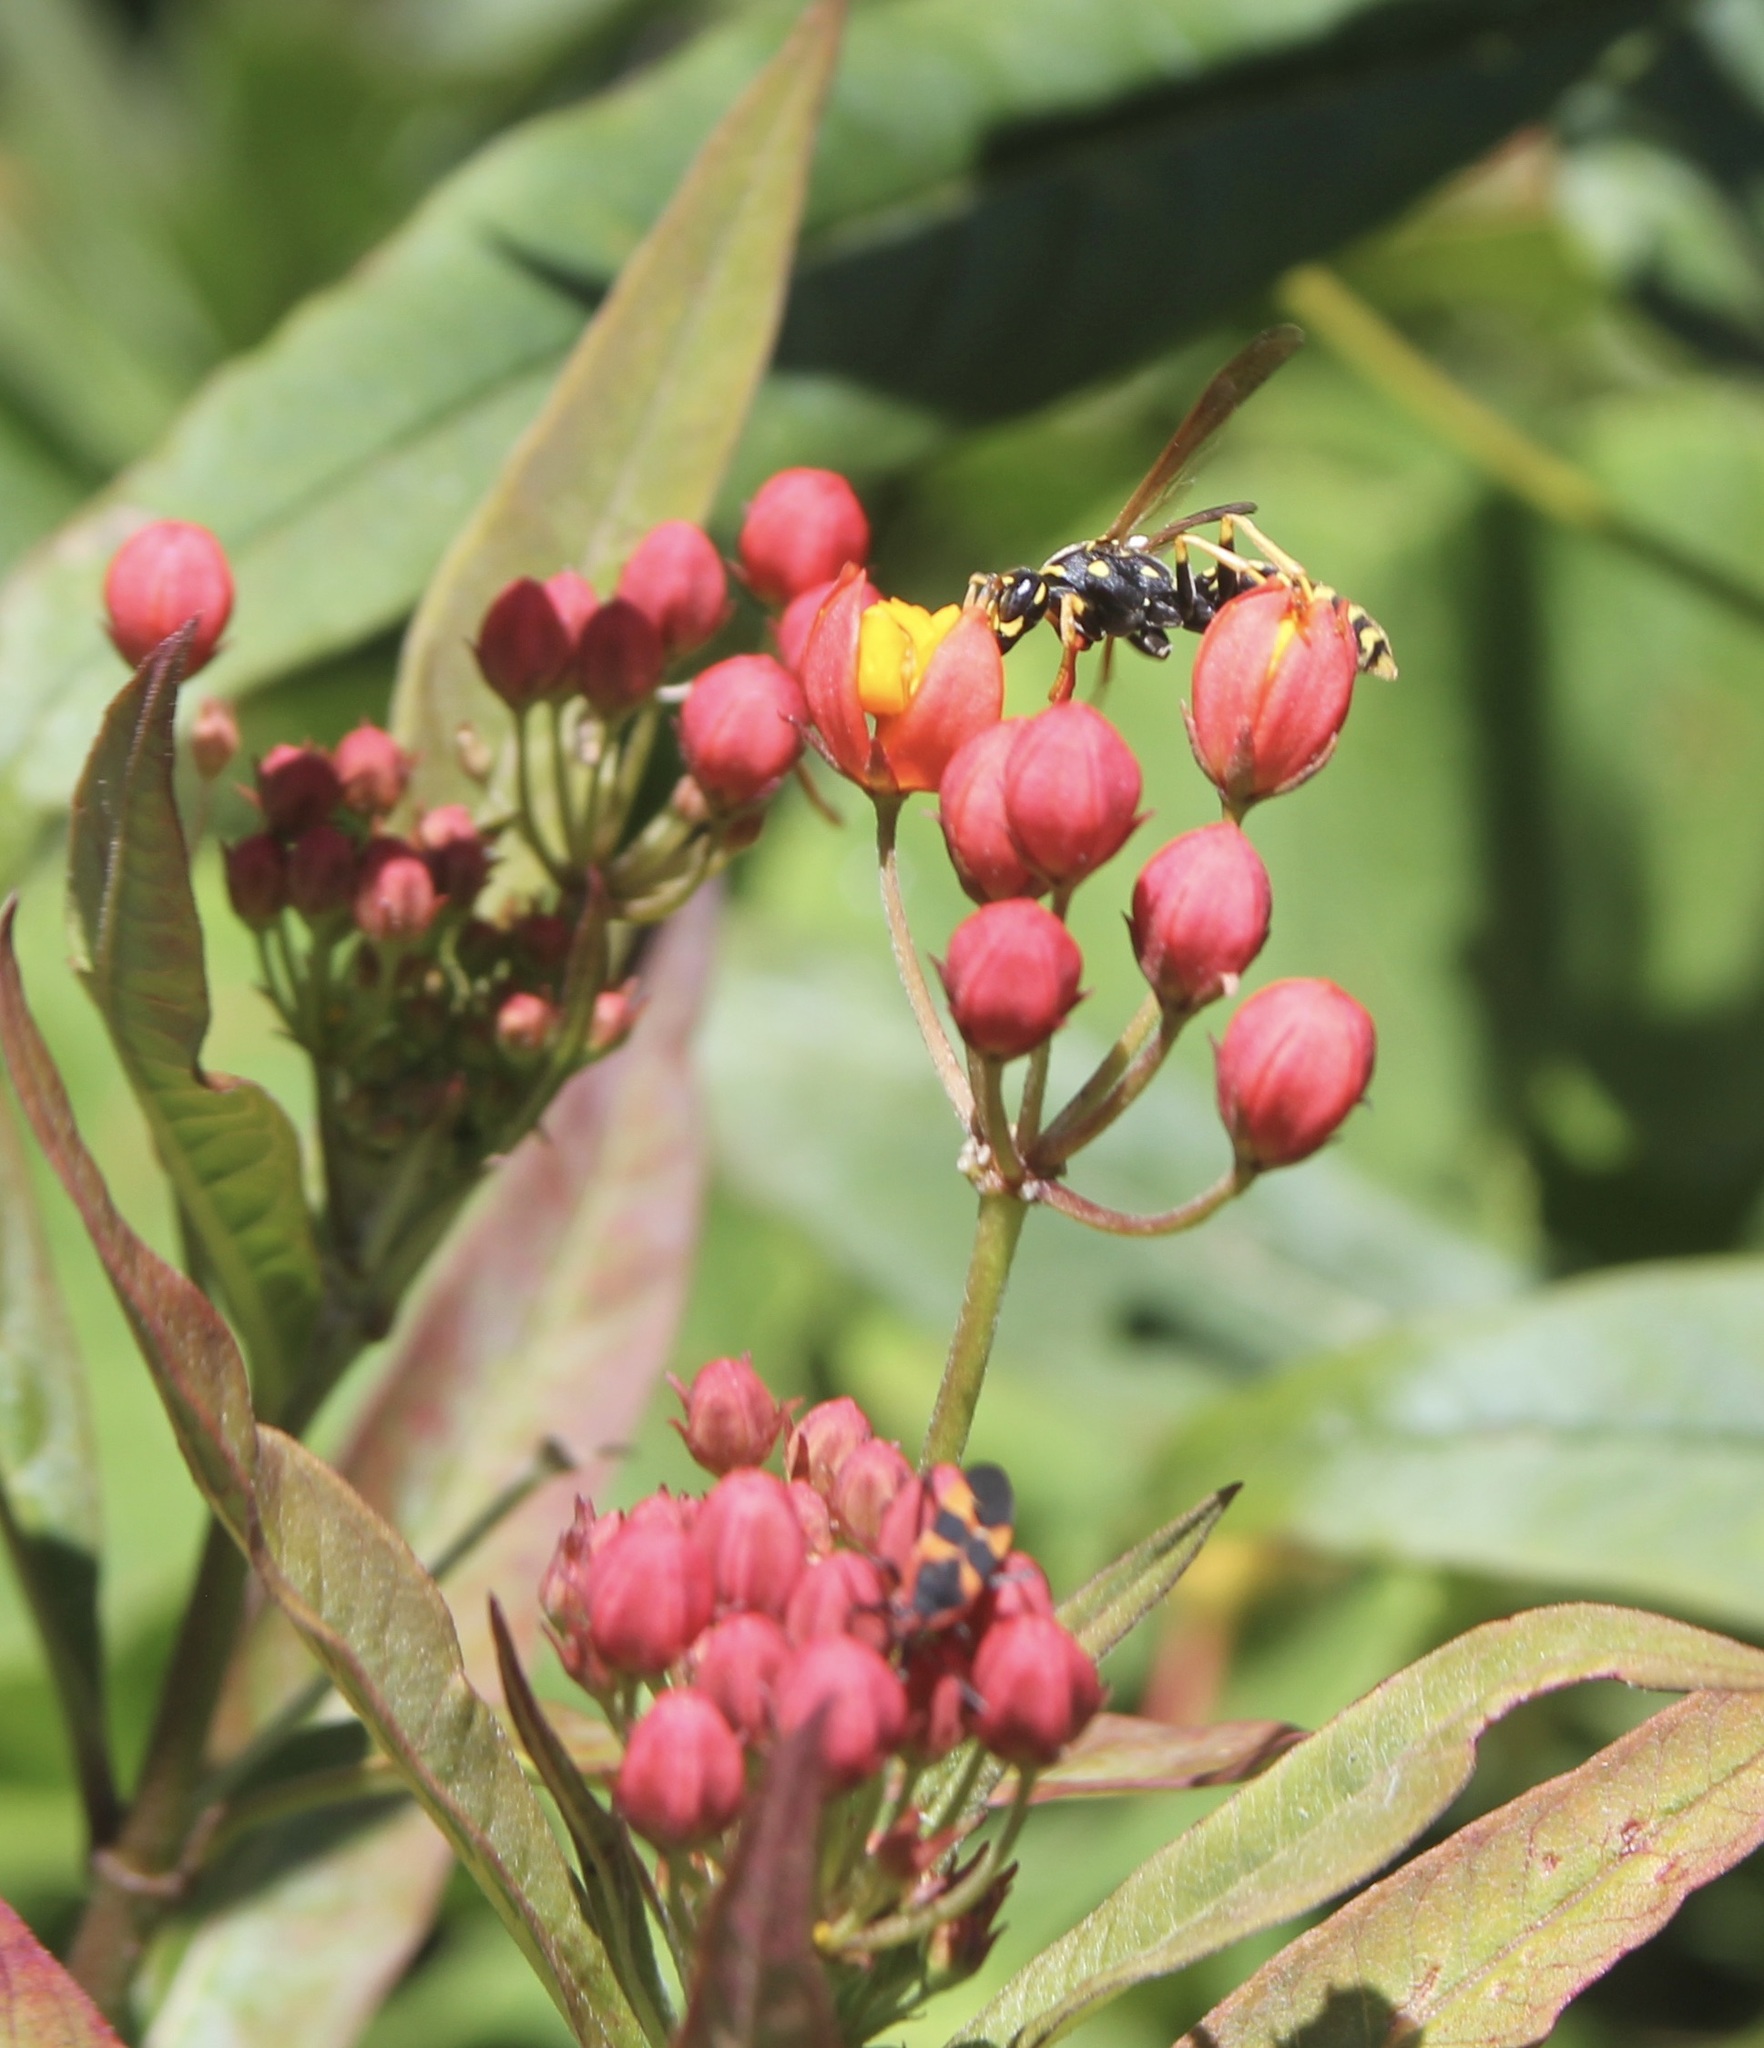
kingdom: Animalia
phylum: Arthropoda
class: Insecta
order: Hymenoptera
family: Eumenidae
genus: Polistes
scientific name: Polistes dominula
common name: Paper wasp
